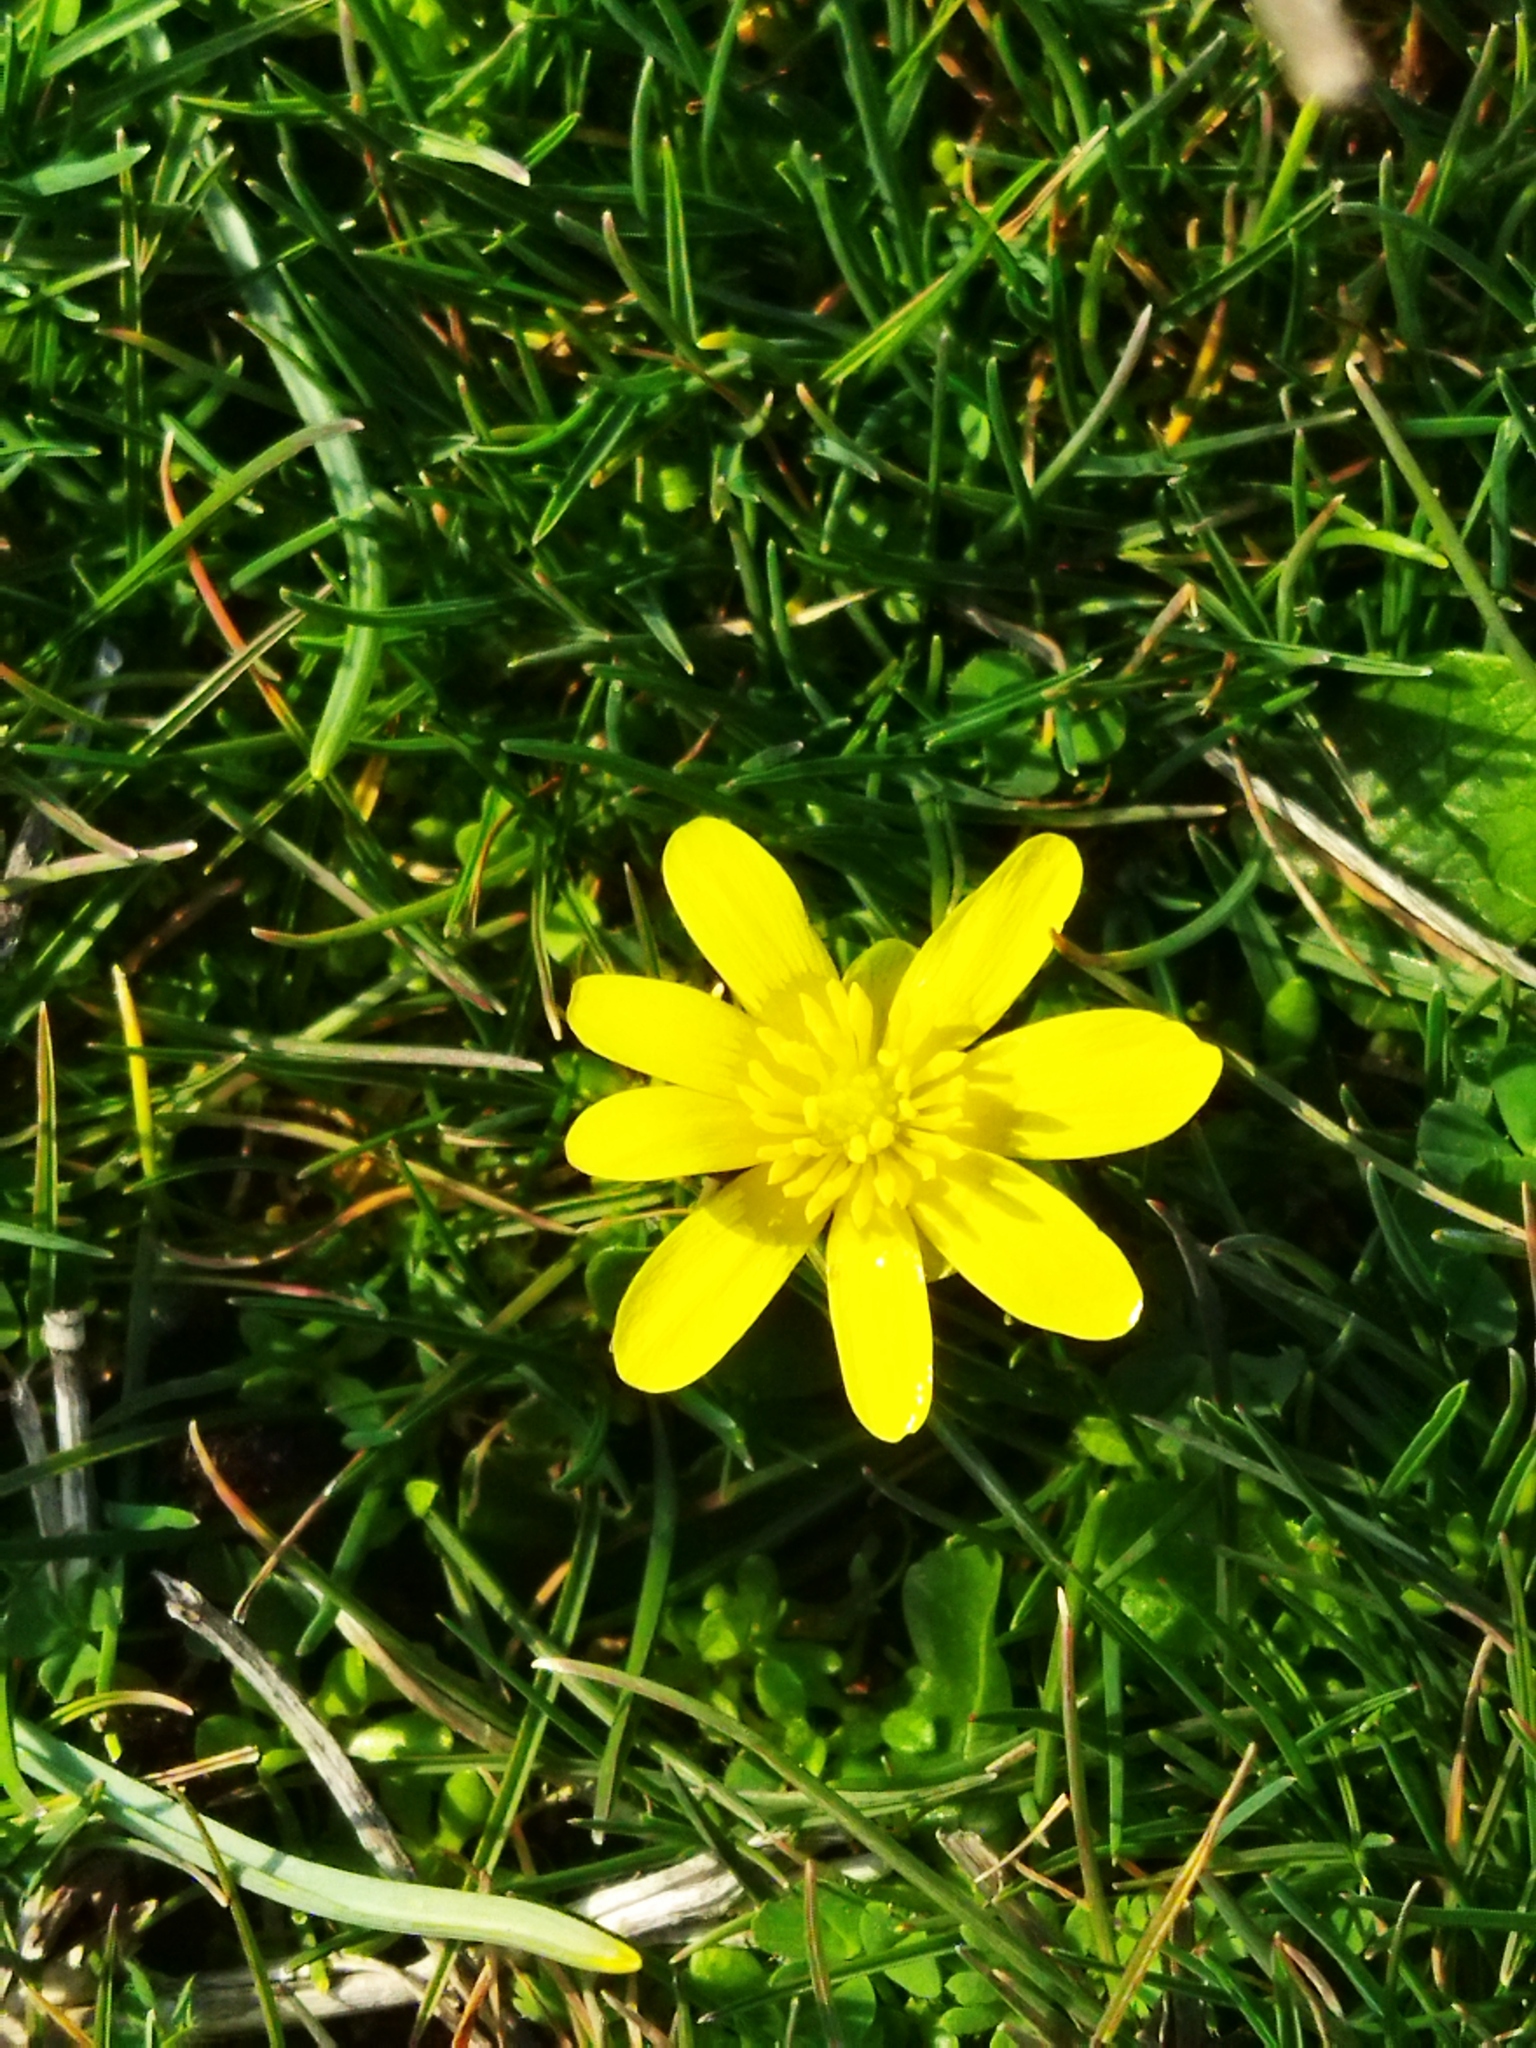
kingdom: Plantae
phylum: Tracheophyta
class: Magnoliopsida
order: Ranunculales
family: Ranunculaceae
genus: Ficaria
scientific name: Ficaria verna
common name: Lesser celandine
